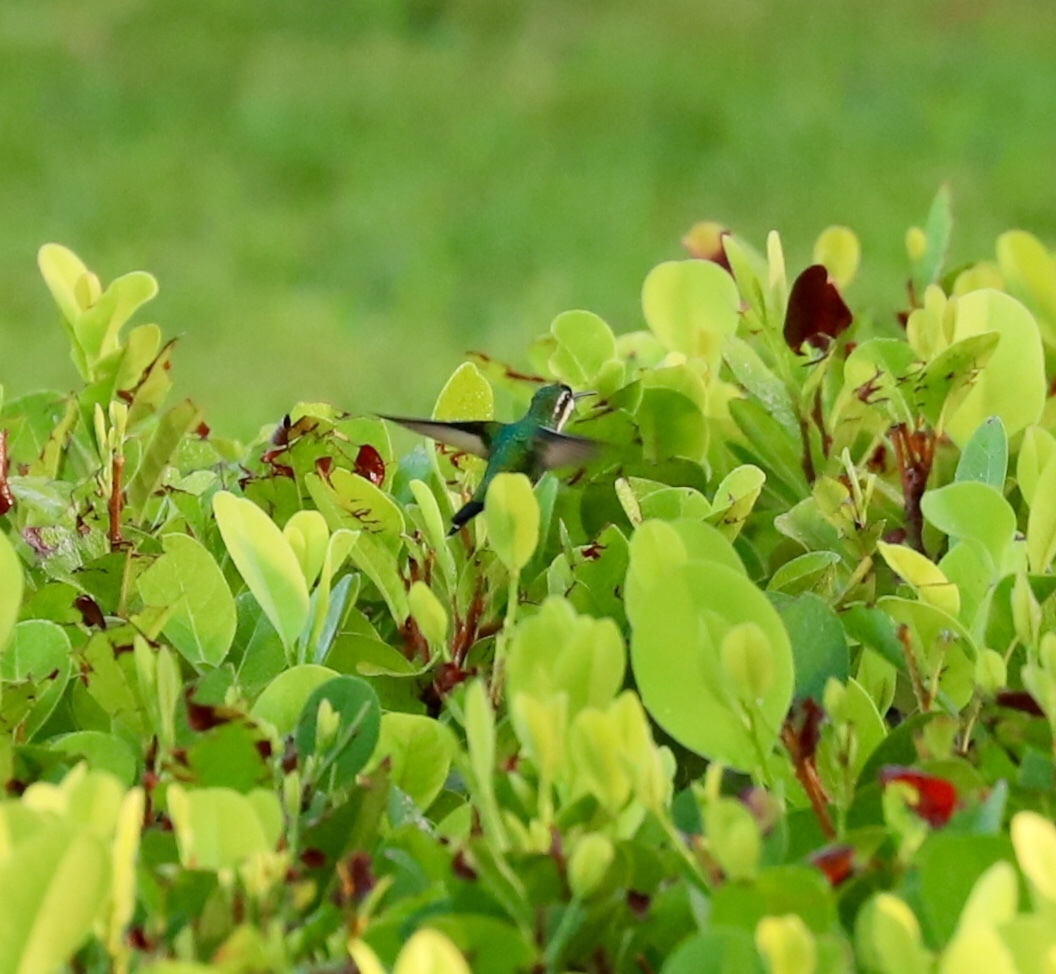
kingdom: Animalia
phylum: Chordata
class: Aves
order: Apodiformes
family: Trochilidae
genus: Chlorostilbon
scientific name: Chlorostilbon assimilis
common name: Garden emerald
